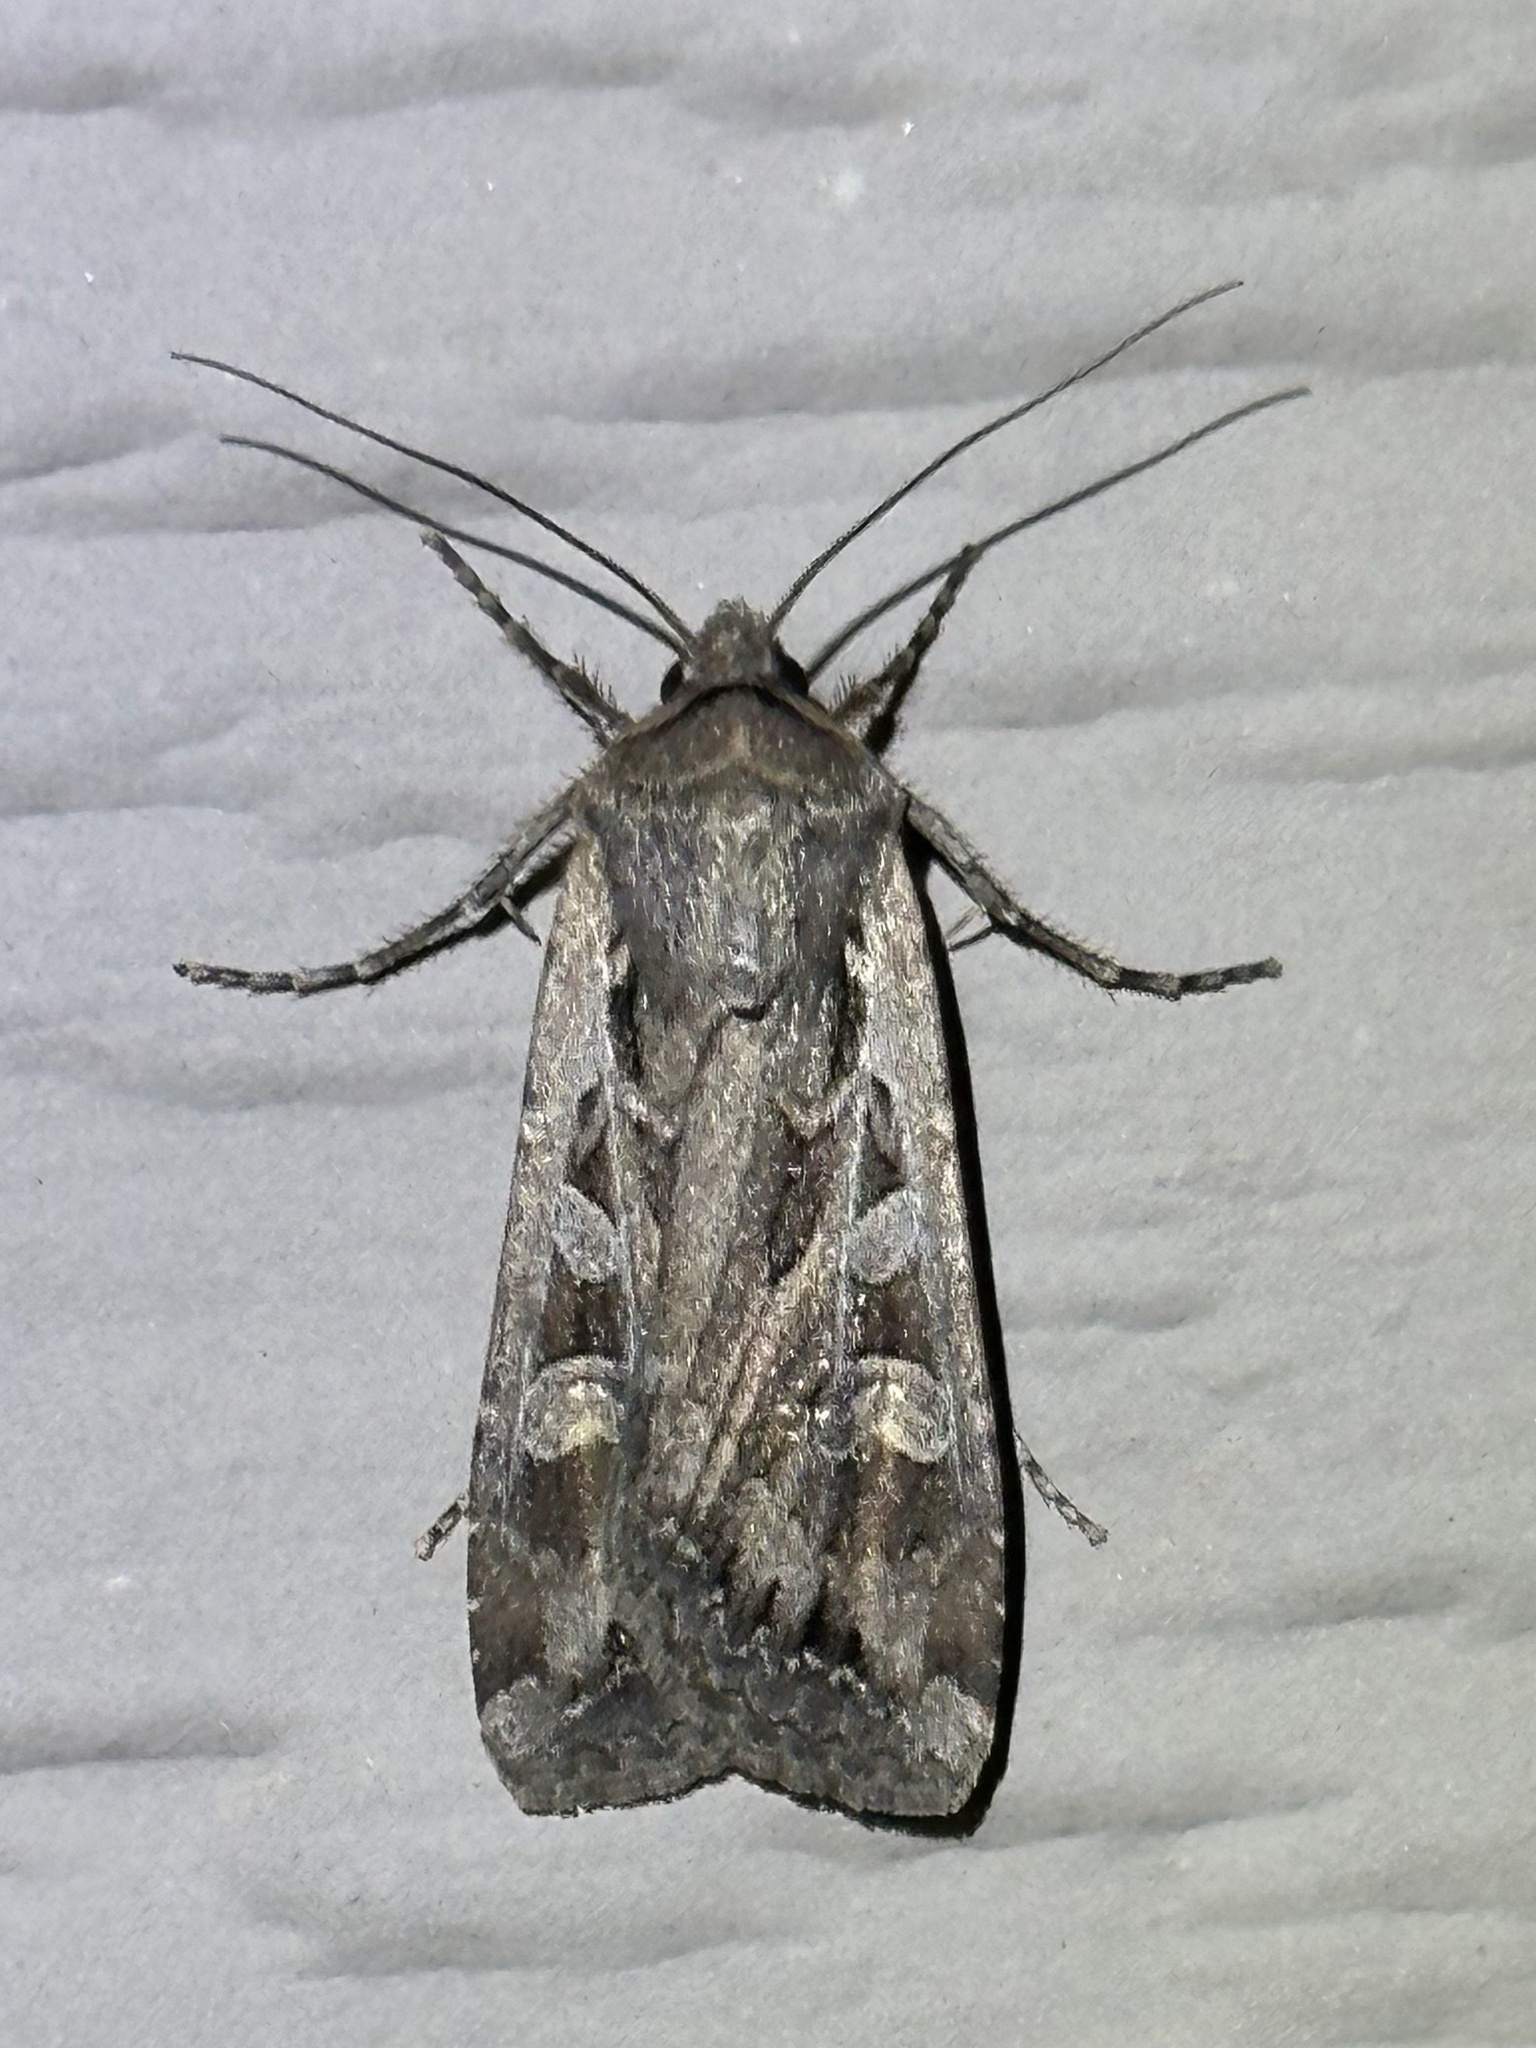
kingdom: Animalia
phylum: Arthropoda
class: Insecta
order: Lepidoptera
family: Noctuidae
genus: Euxoa
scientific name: Euxoa auxiliaris
